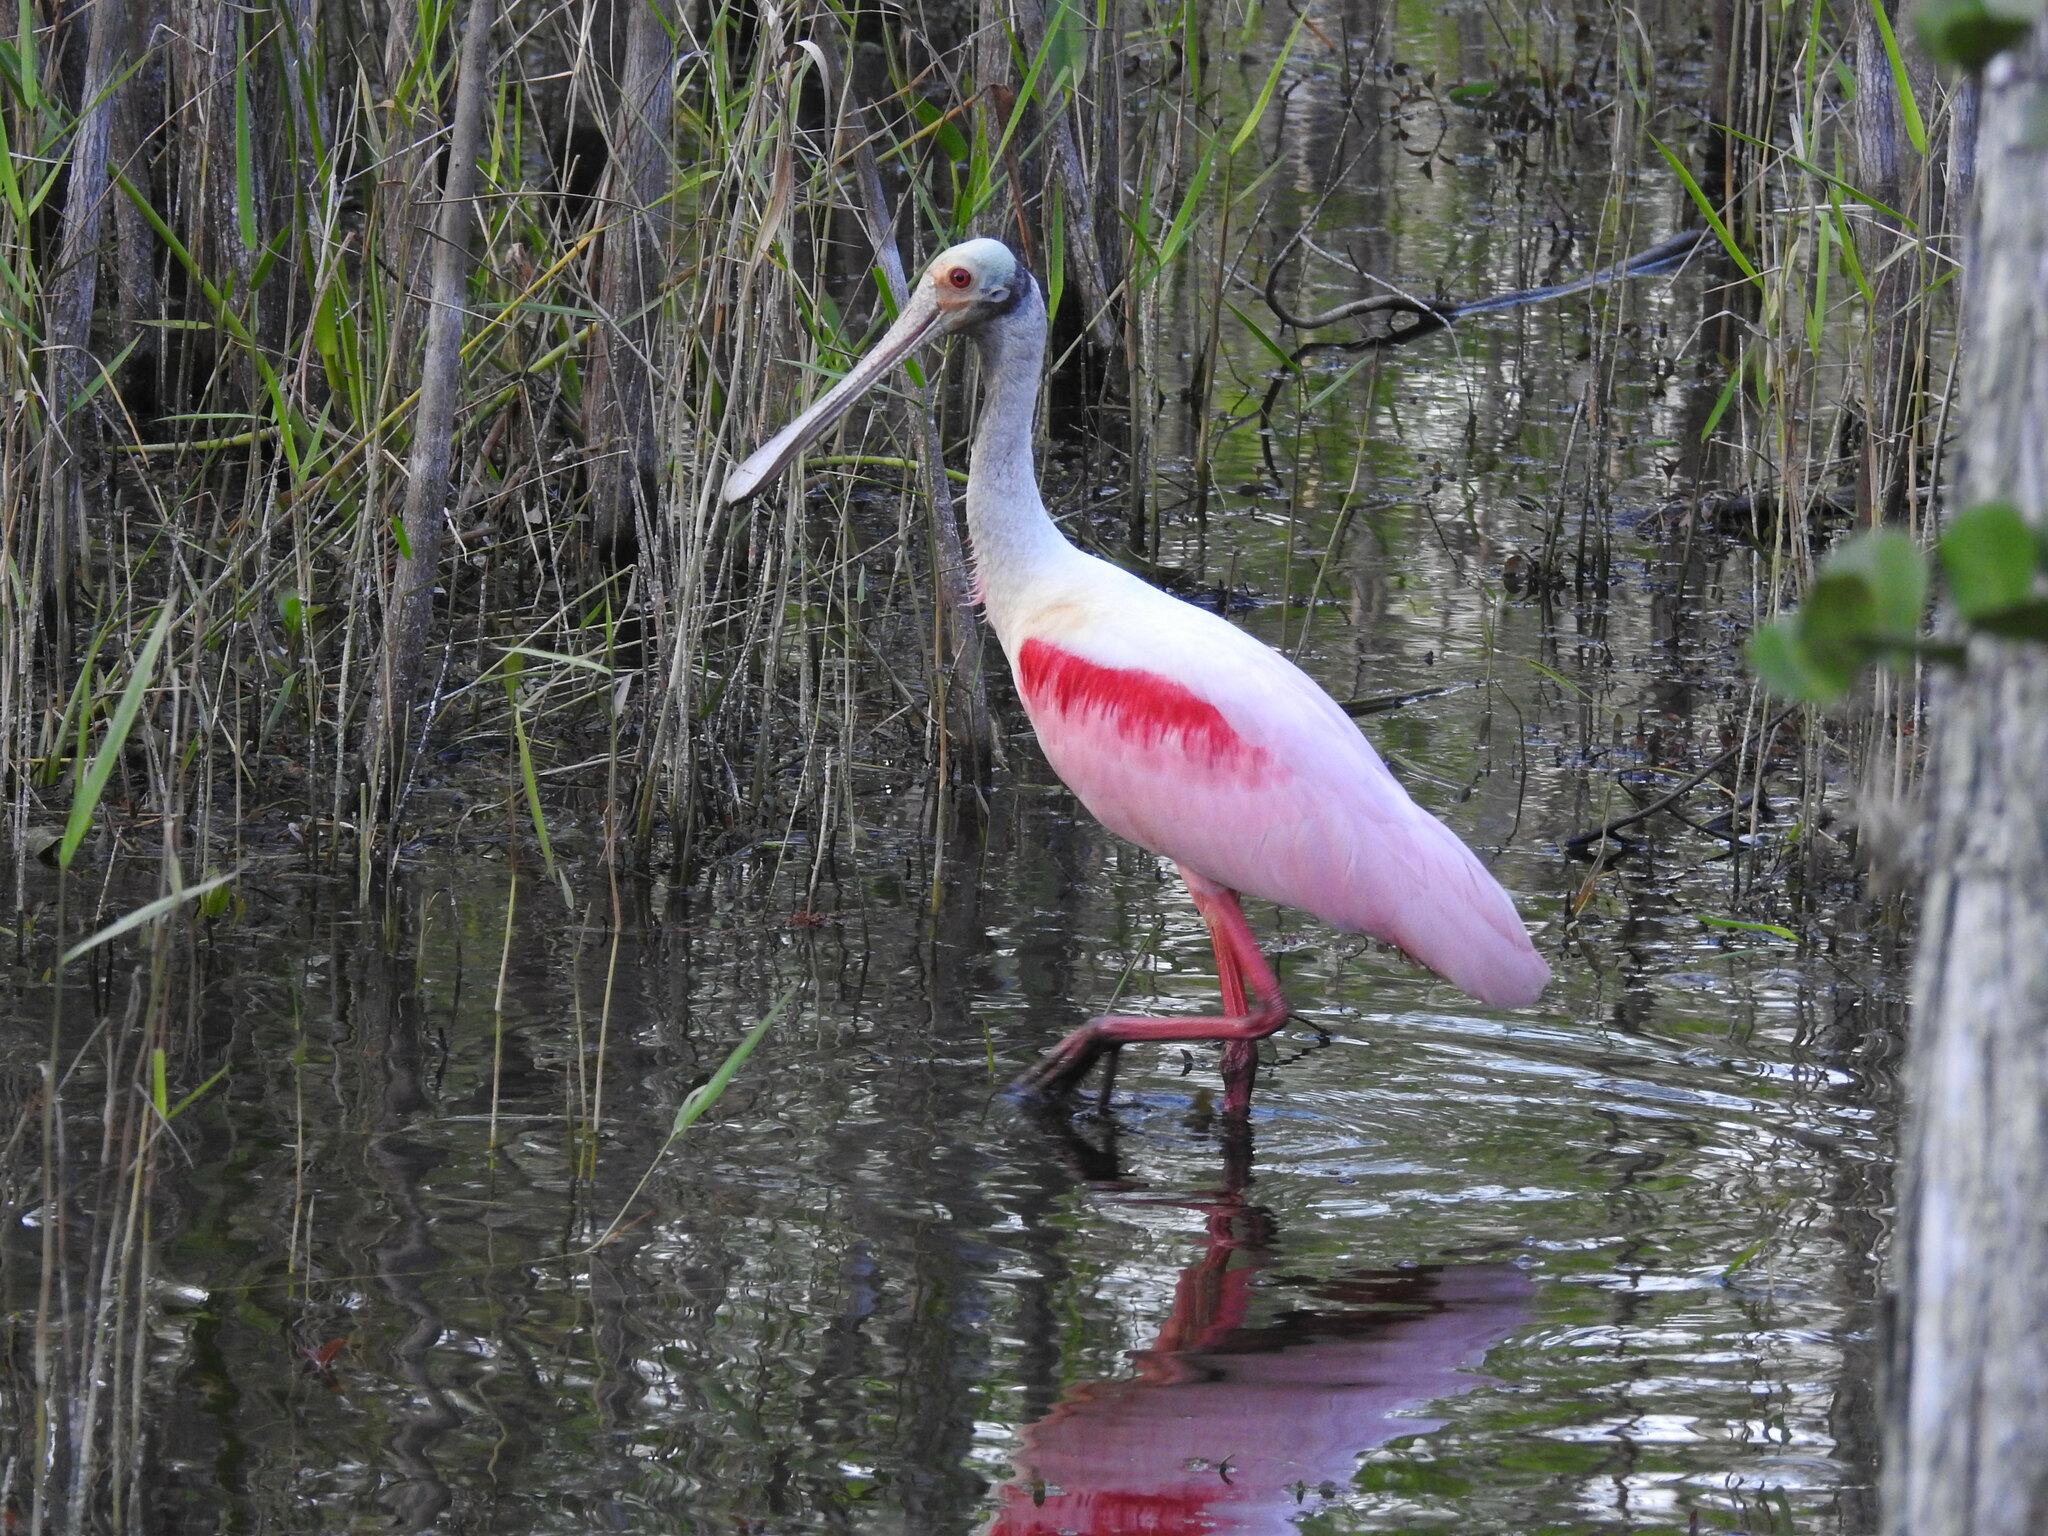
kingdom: Animalia
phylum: Chordata
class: Aves
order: Pelecaniformes
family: Threskiornithidae
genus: Platalea
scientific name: Platalea ajaja
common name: Roseate spoonbill
